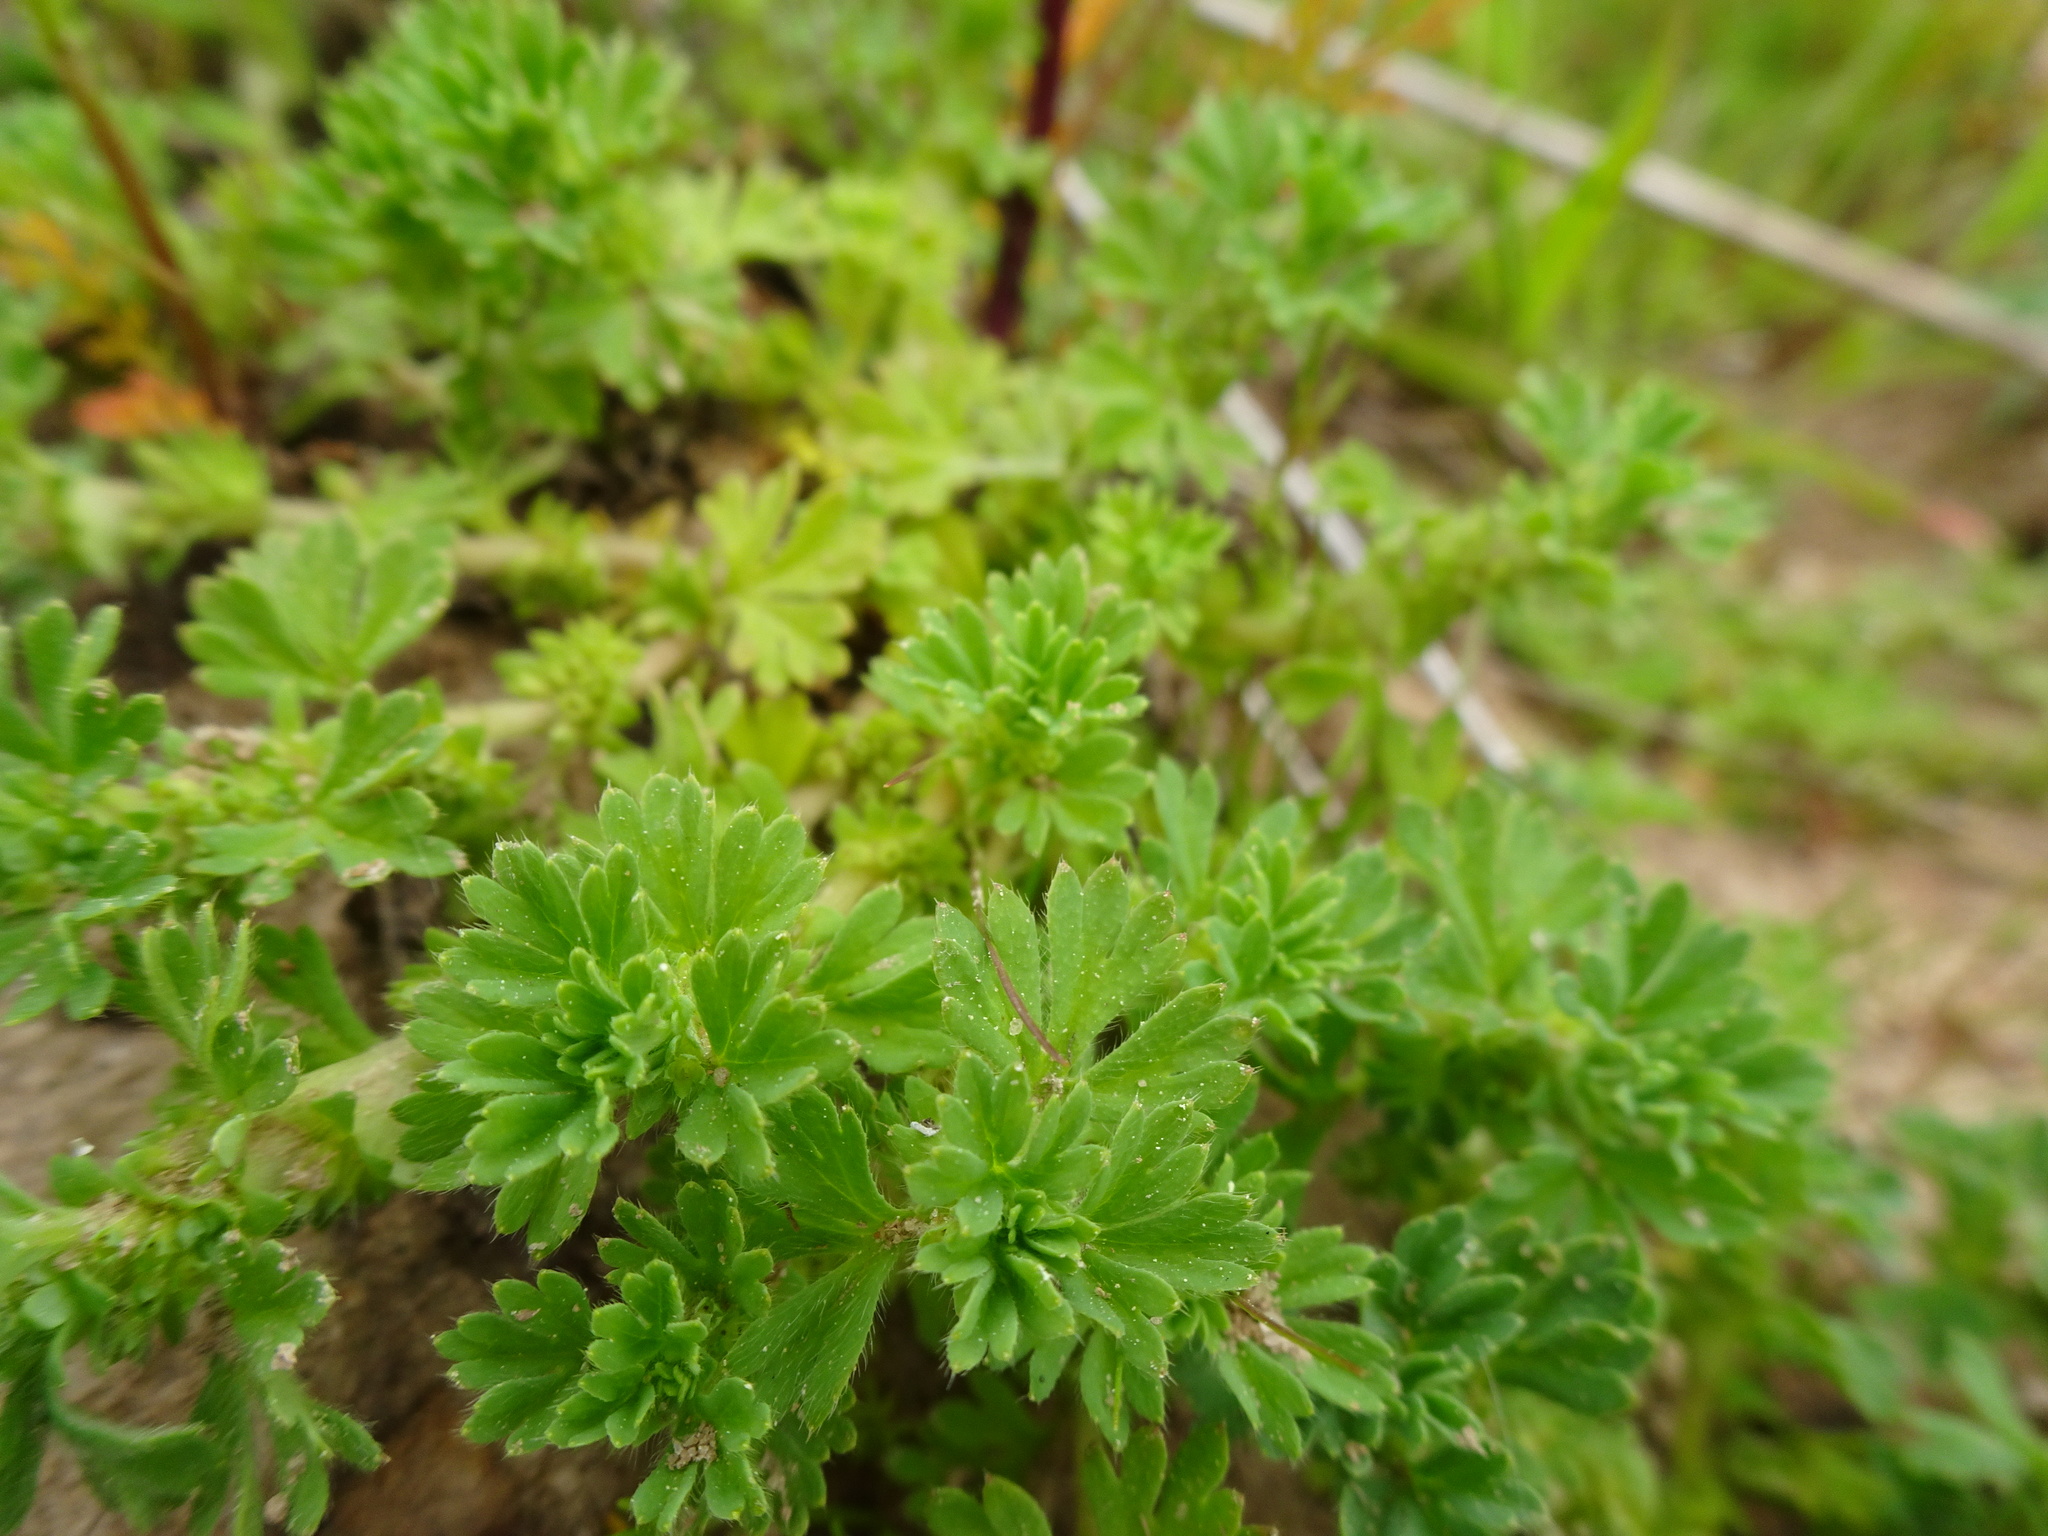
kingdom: Plantae
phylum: Tracheophyta
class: Magnoliopsida
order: Rosales
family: Rosaceae
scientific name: Rosaceae
